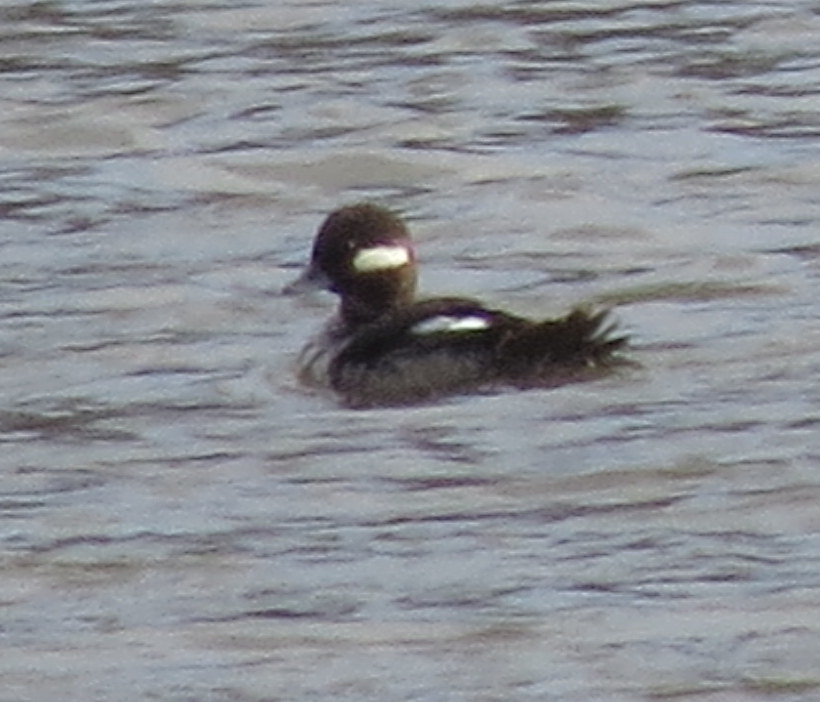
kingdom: Animalia
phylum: Chordata
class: Aves
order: Anseriformes
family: Anatidae
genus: Bucephala
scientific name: Bucephala albeola
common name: Bufflehead
